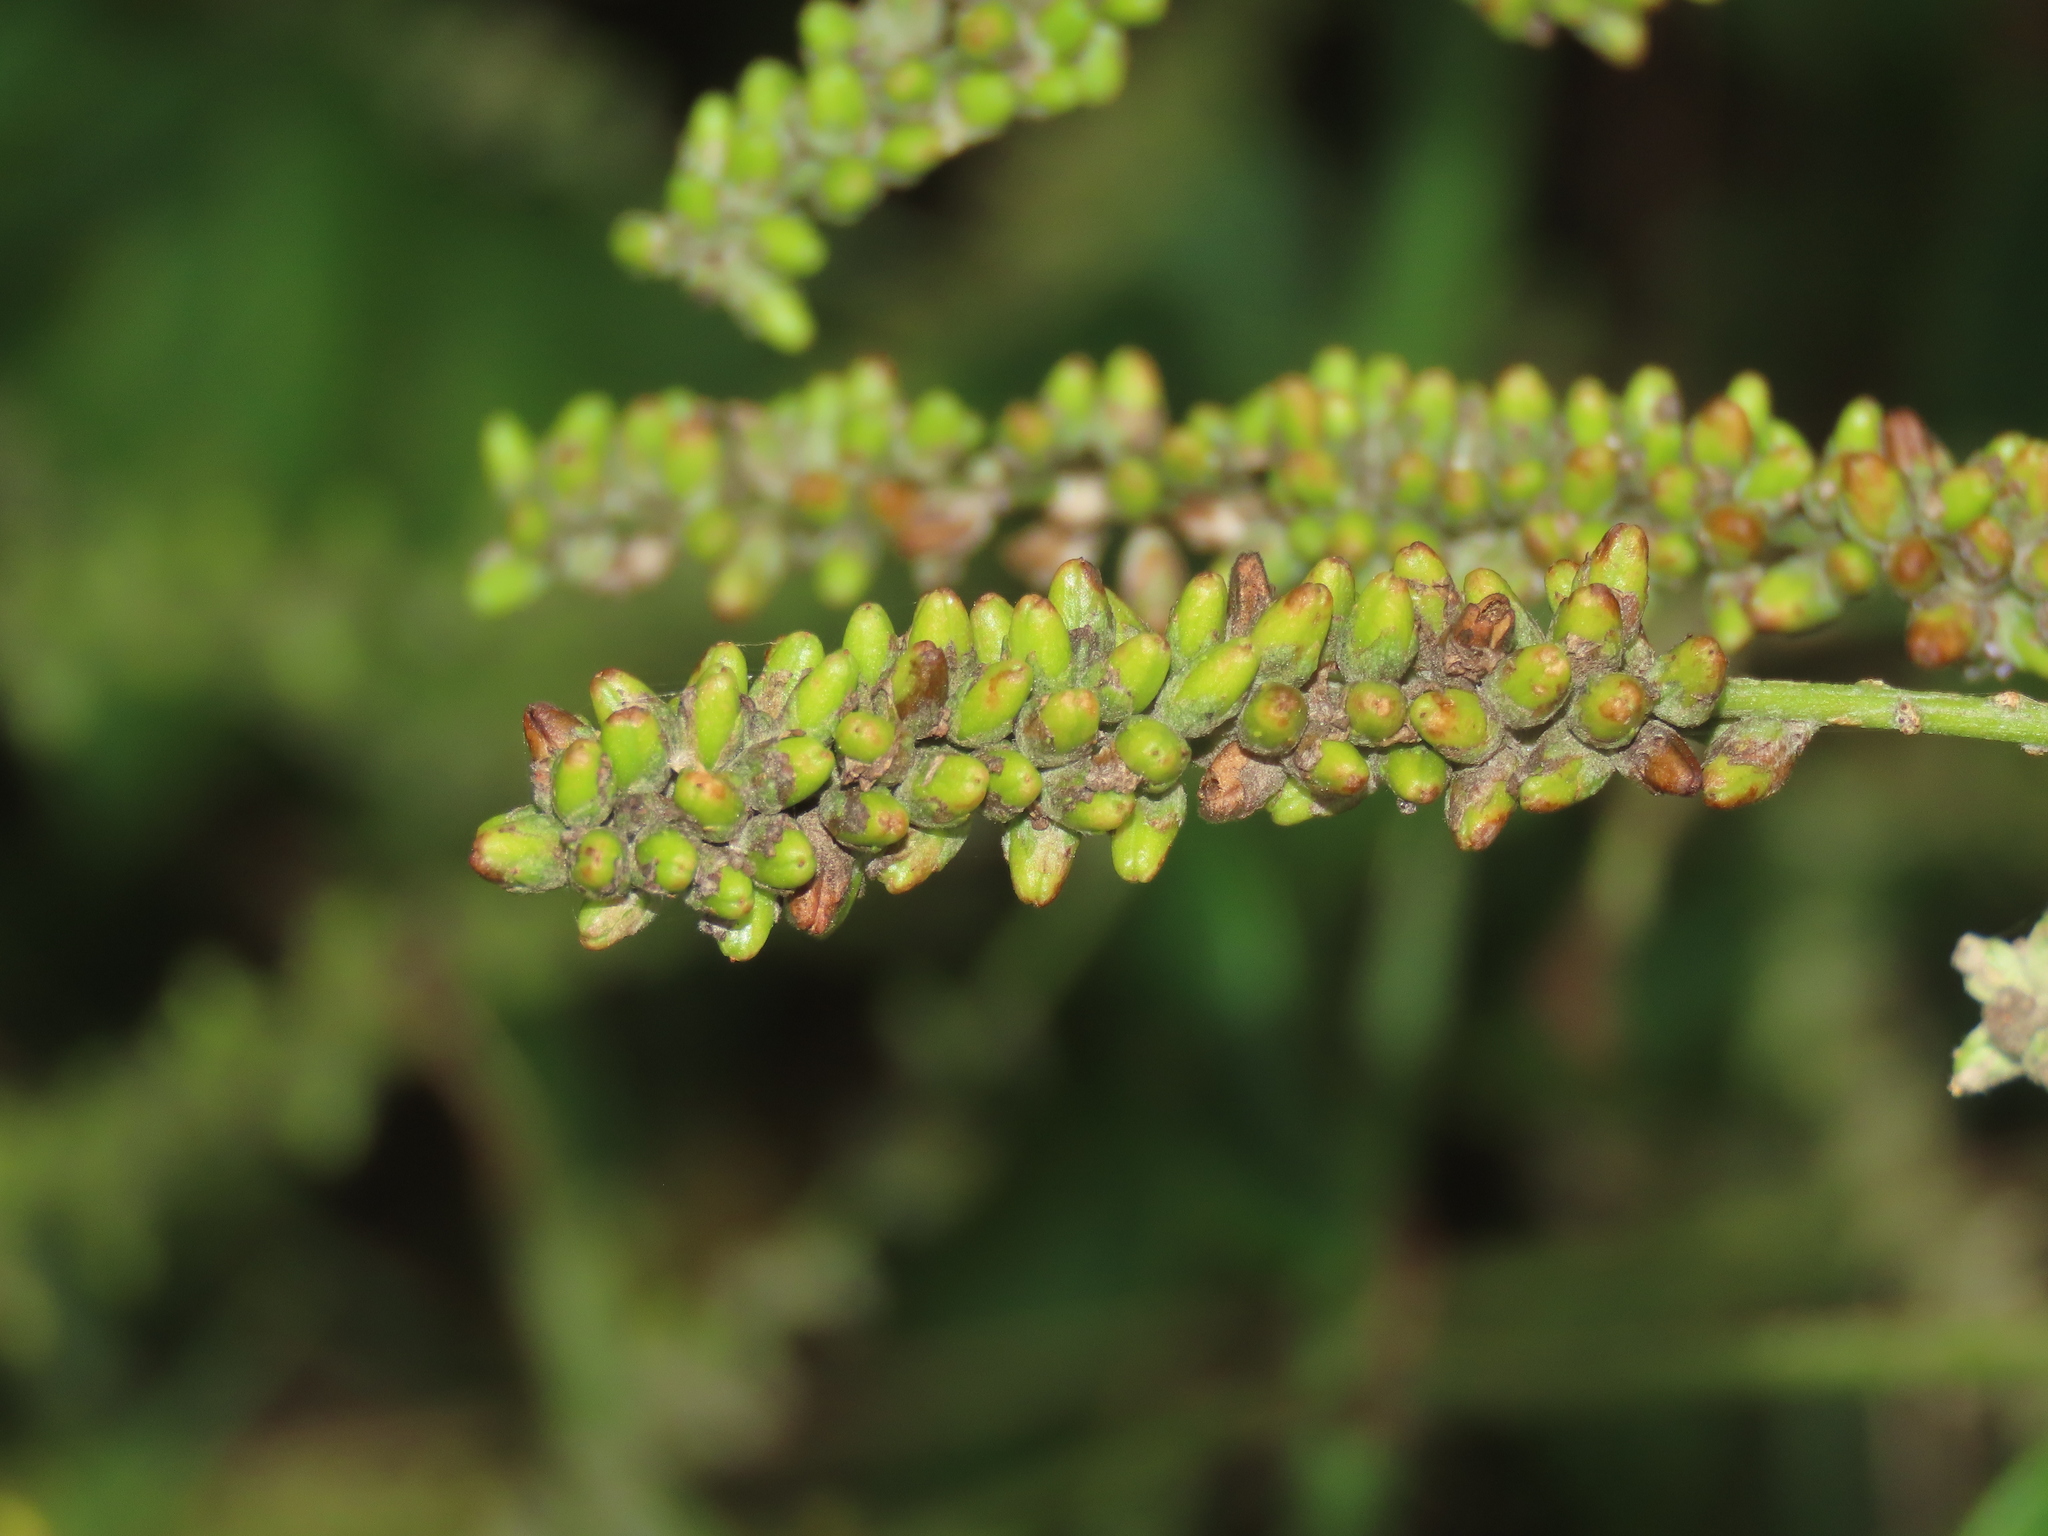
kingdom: Plantae
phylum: Tracheophyta
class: Magnoliopsida
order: Lamiales
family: Scrophulariaceae
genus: Buddleja
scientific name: Buddleja asiatica
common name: Dog tail
